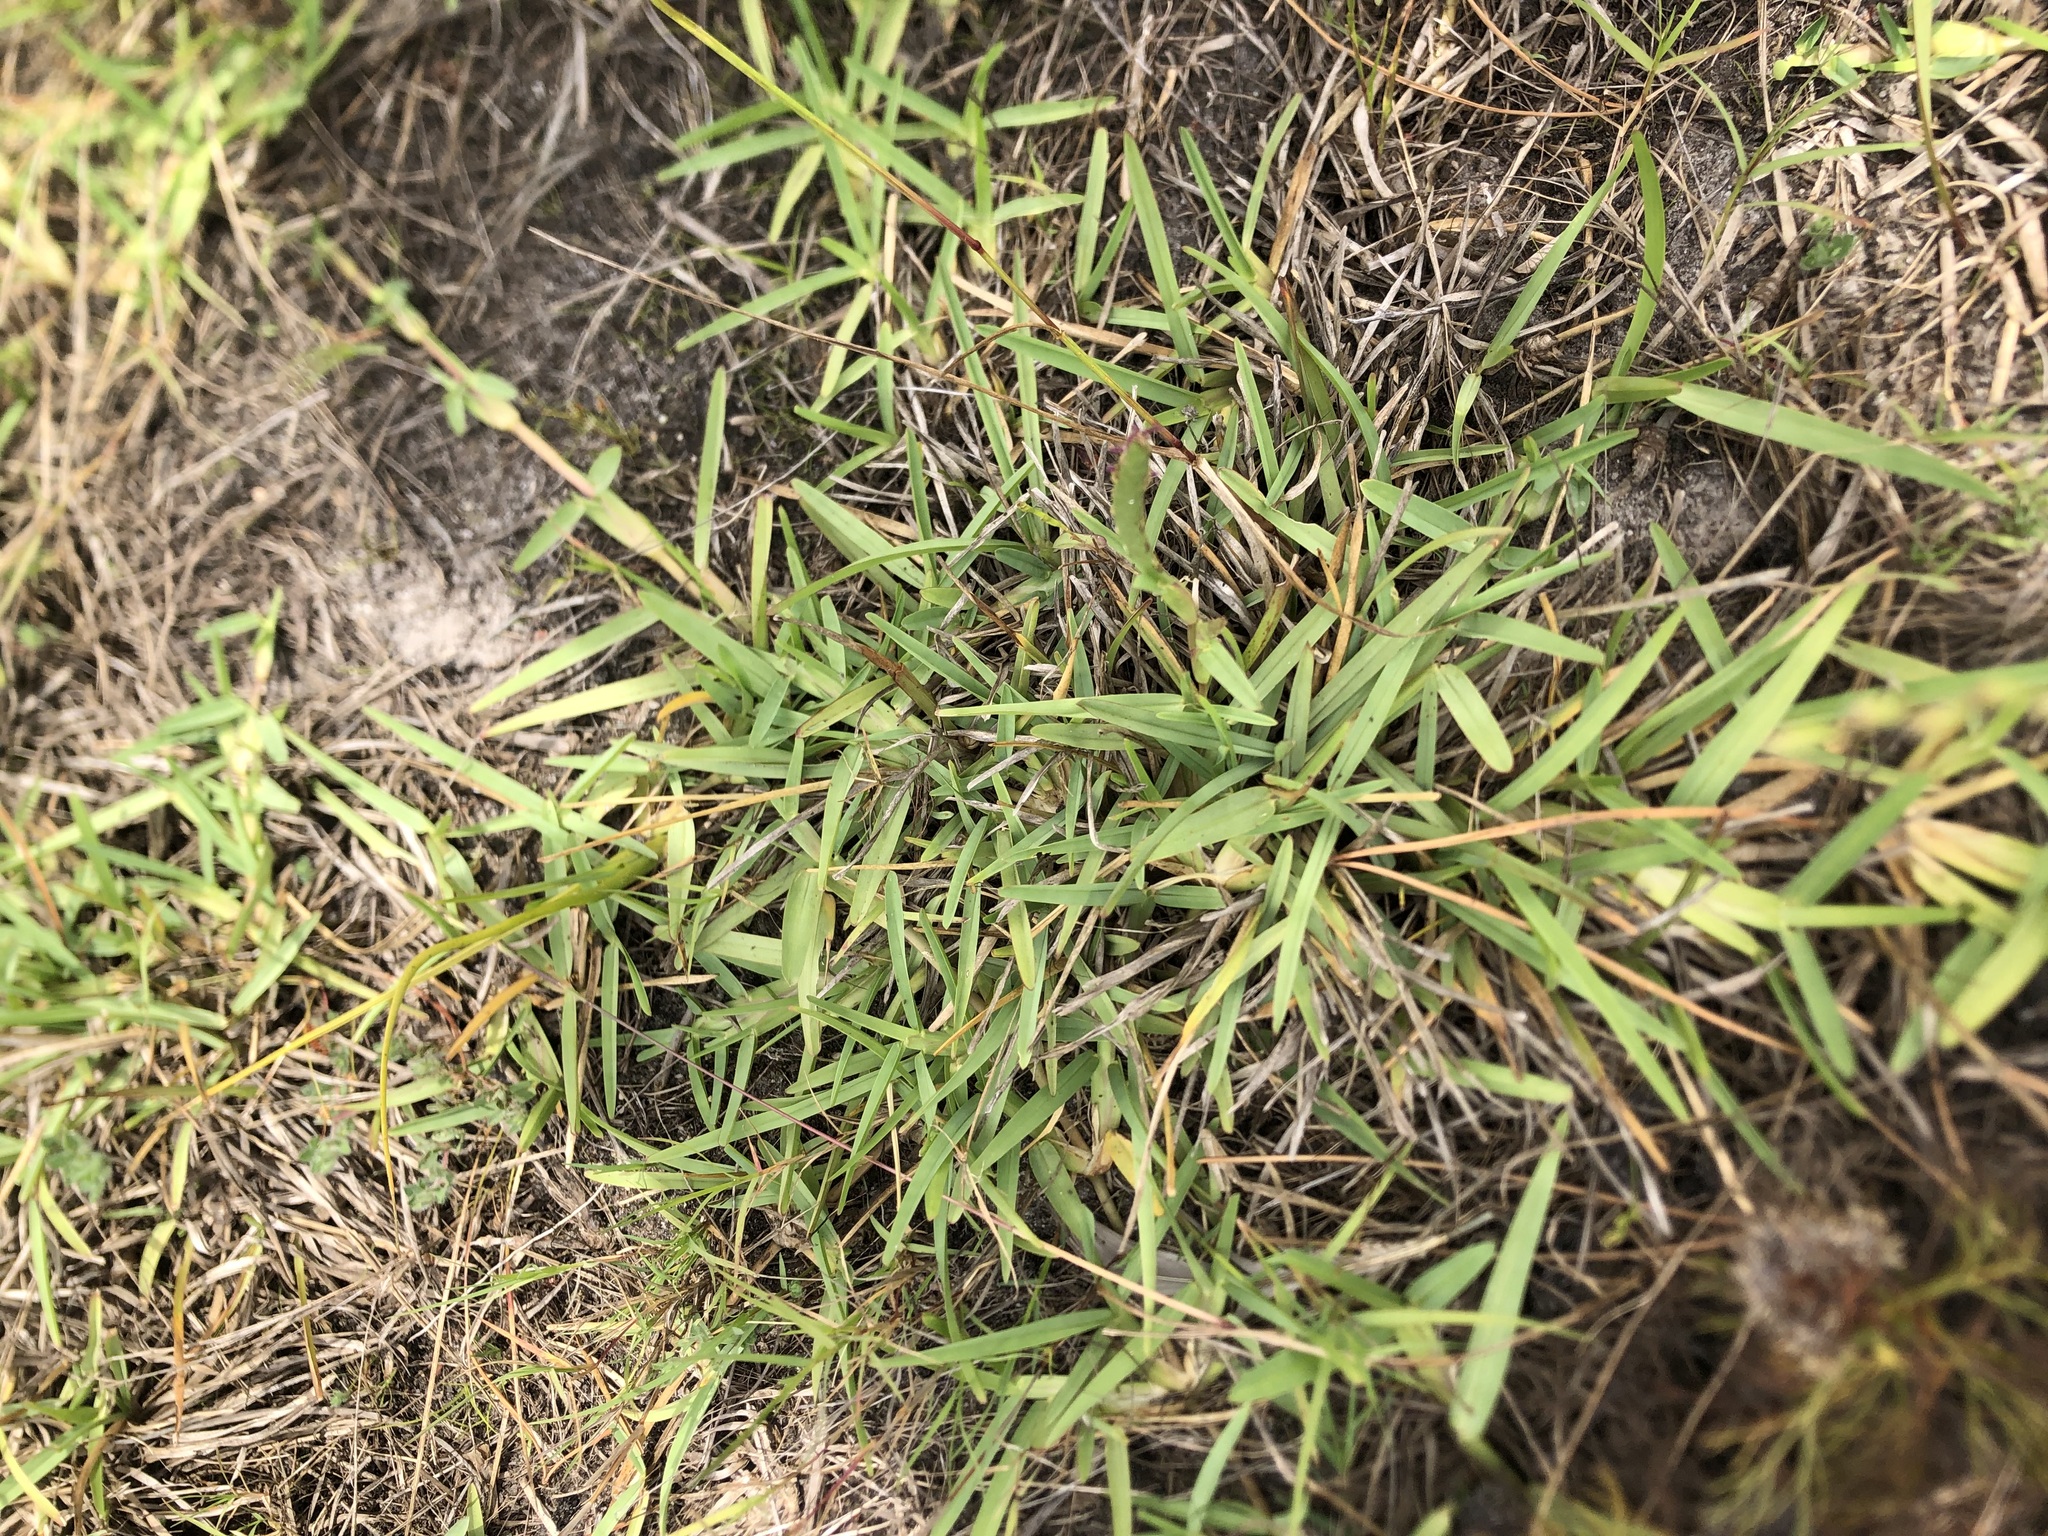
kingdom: Plantae
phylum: Tracheophyta
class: Liliopsida
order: Poales
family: Poaceae
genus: Stenotaphrum
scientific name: Stenotaphrum secundatum
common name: St. augustine grass
